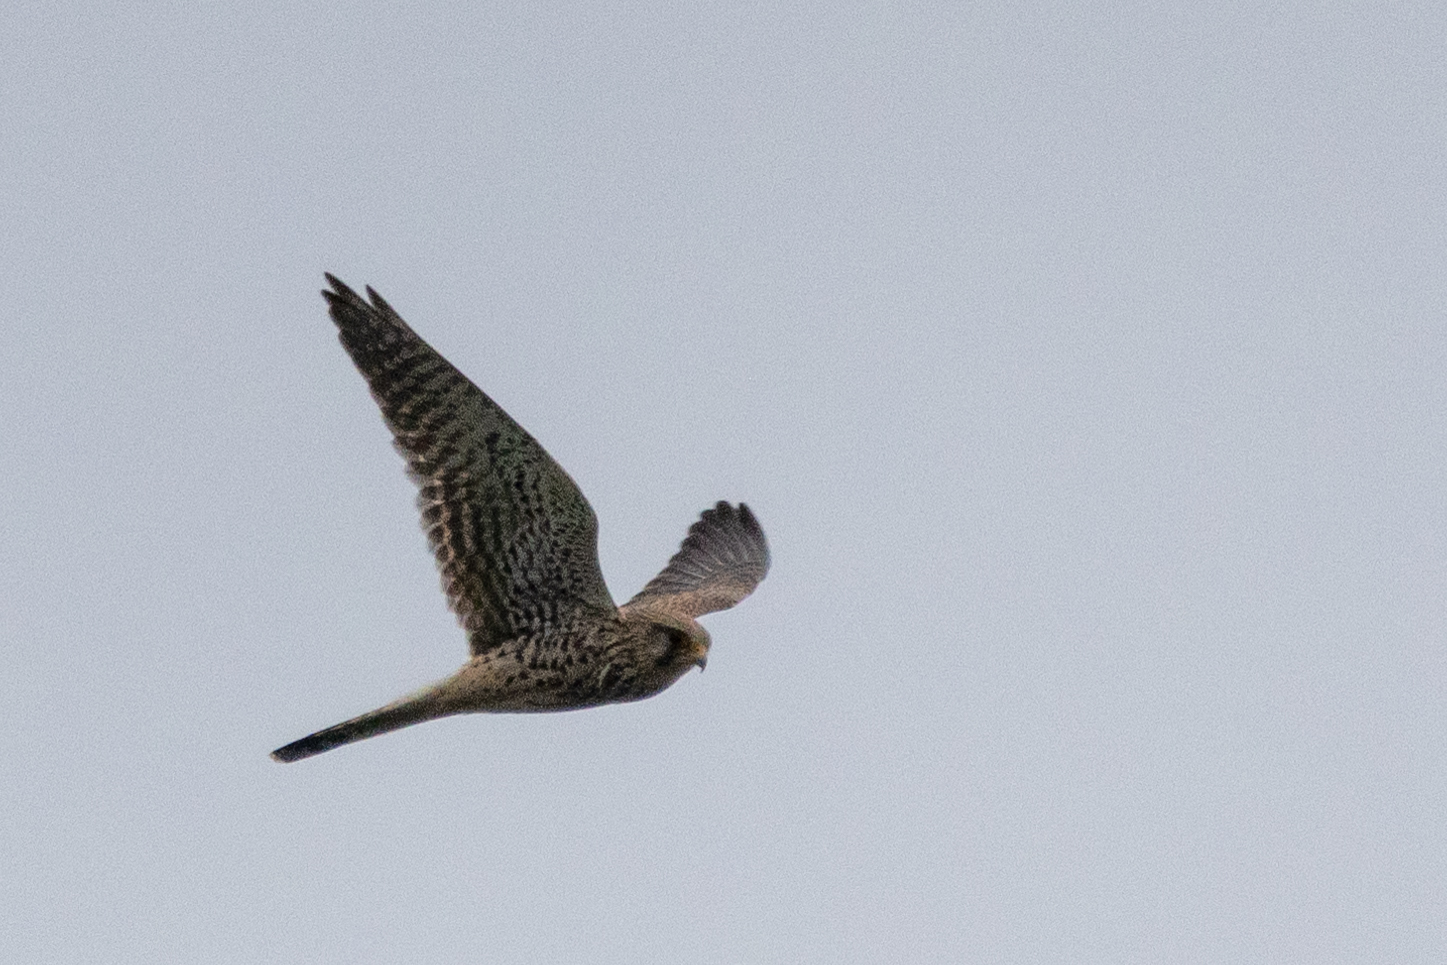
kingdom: Animalia
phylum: Chordata
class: Aves
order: Falconiformes
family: Falconidae
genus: Falco
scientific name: Falco tinnunculus
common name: Common kestrel
